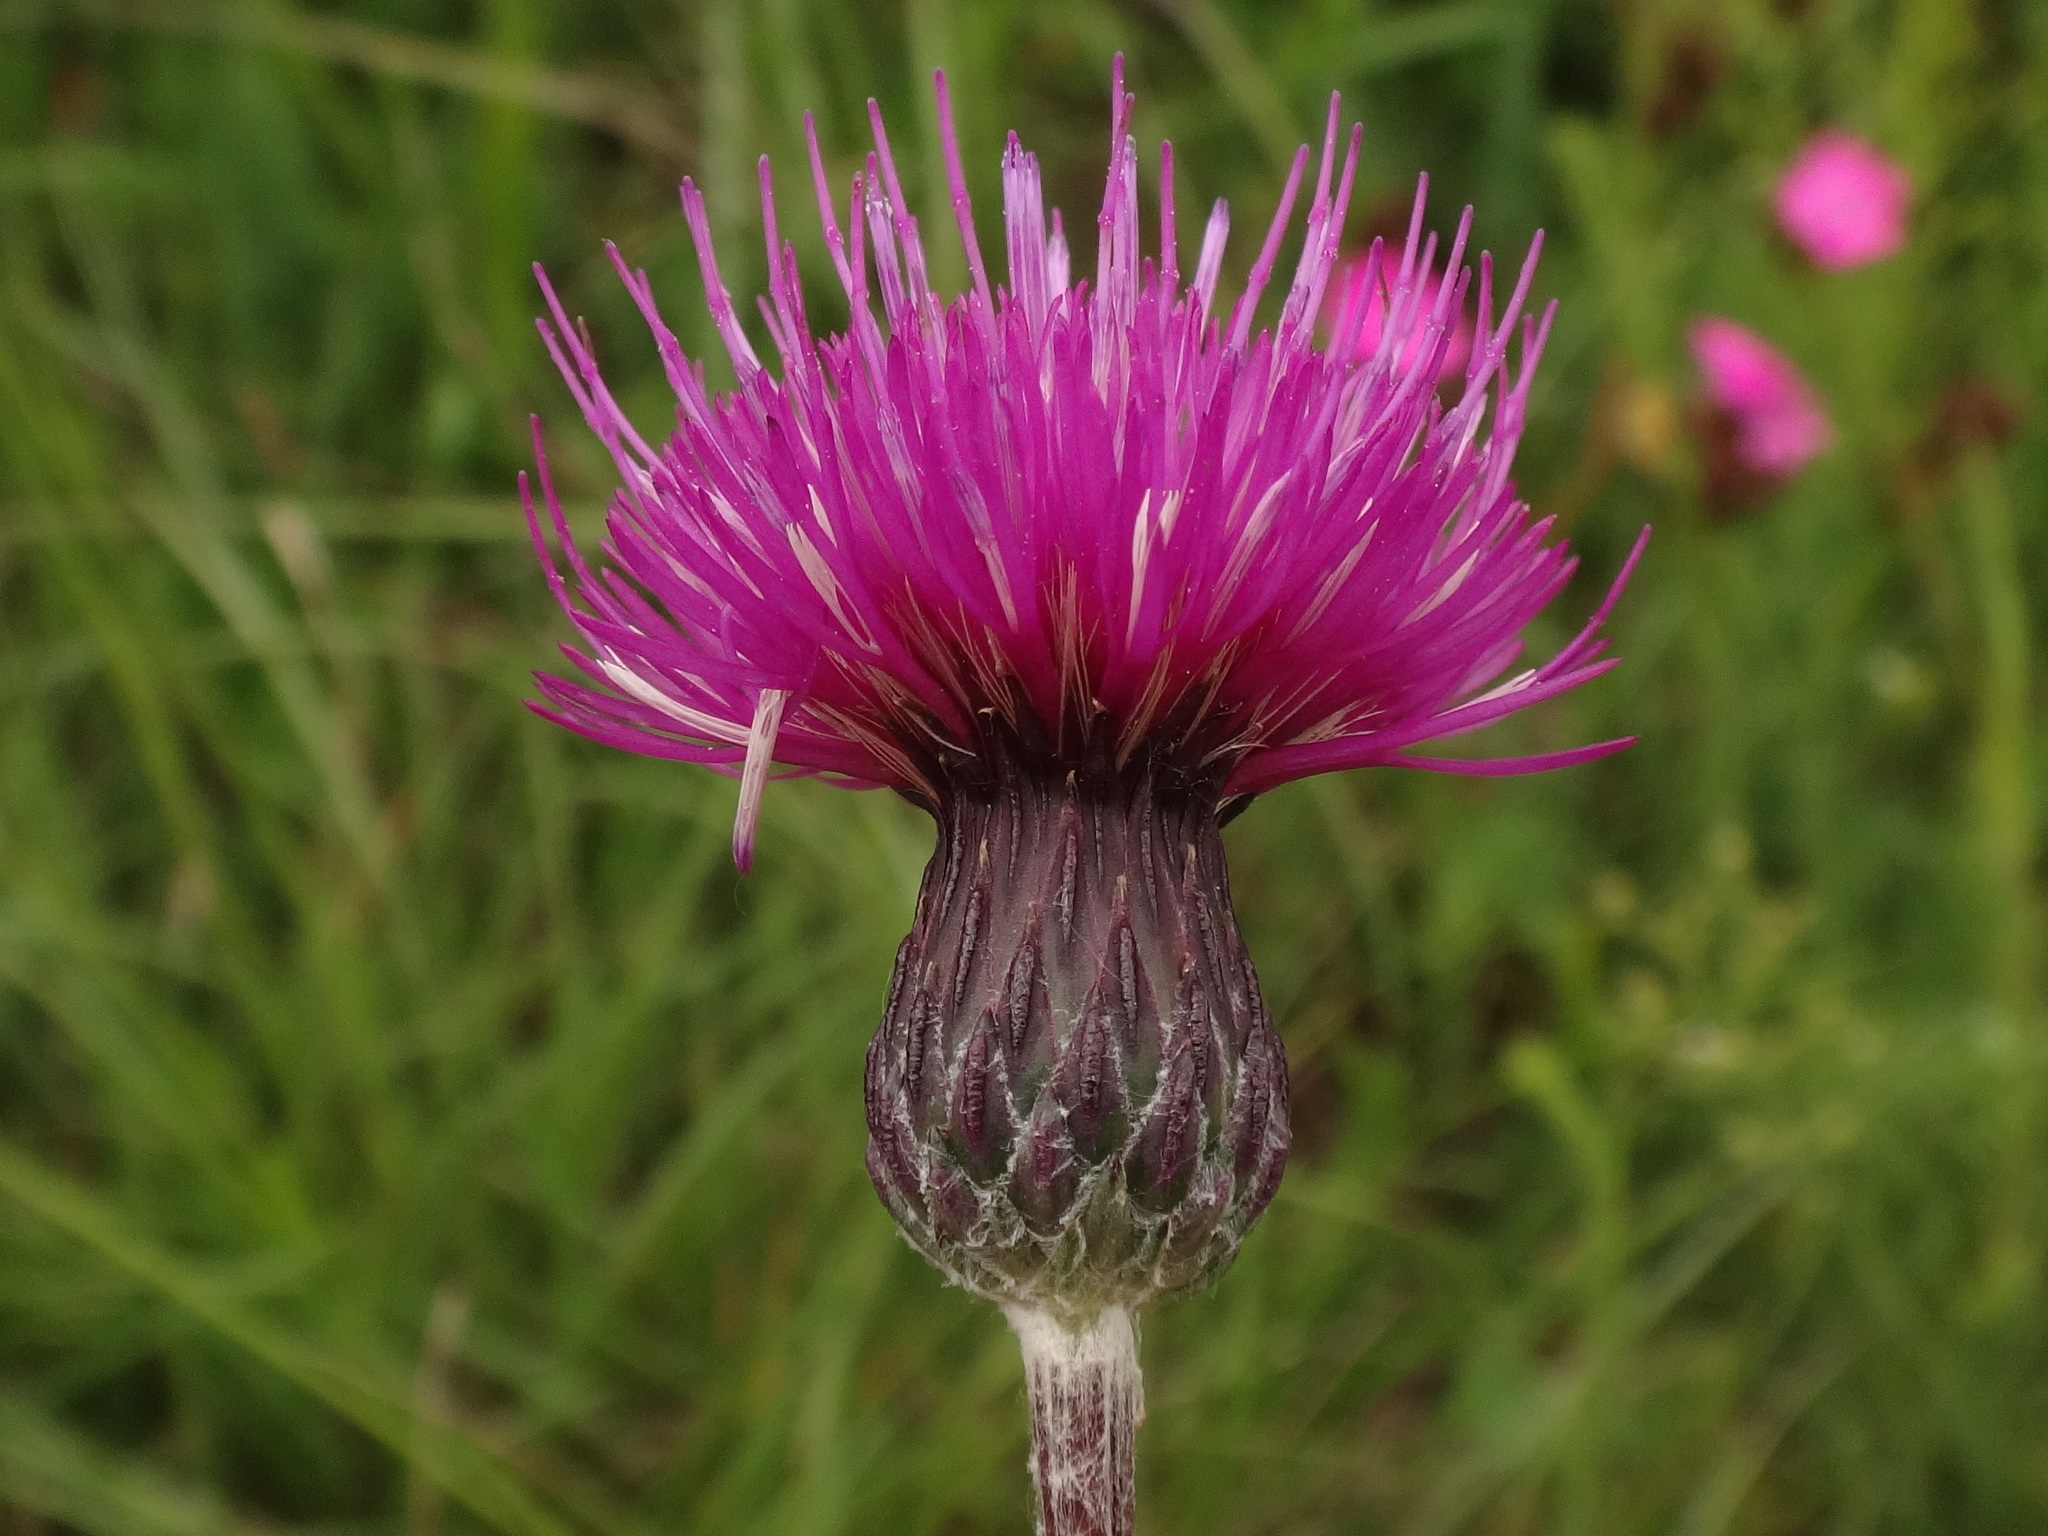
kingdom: Plantae
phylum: Tracheophyta
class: Magnoliopsida
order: Asterales
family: Asteraceae
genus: Cirsium
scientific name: Cirsium pannonicum
